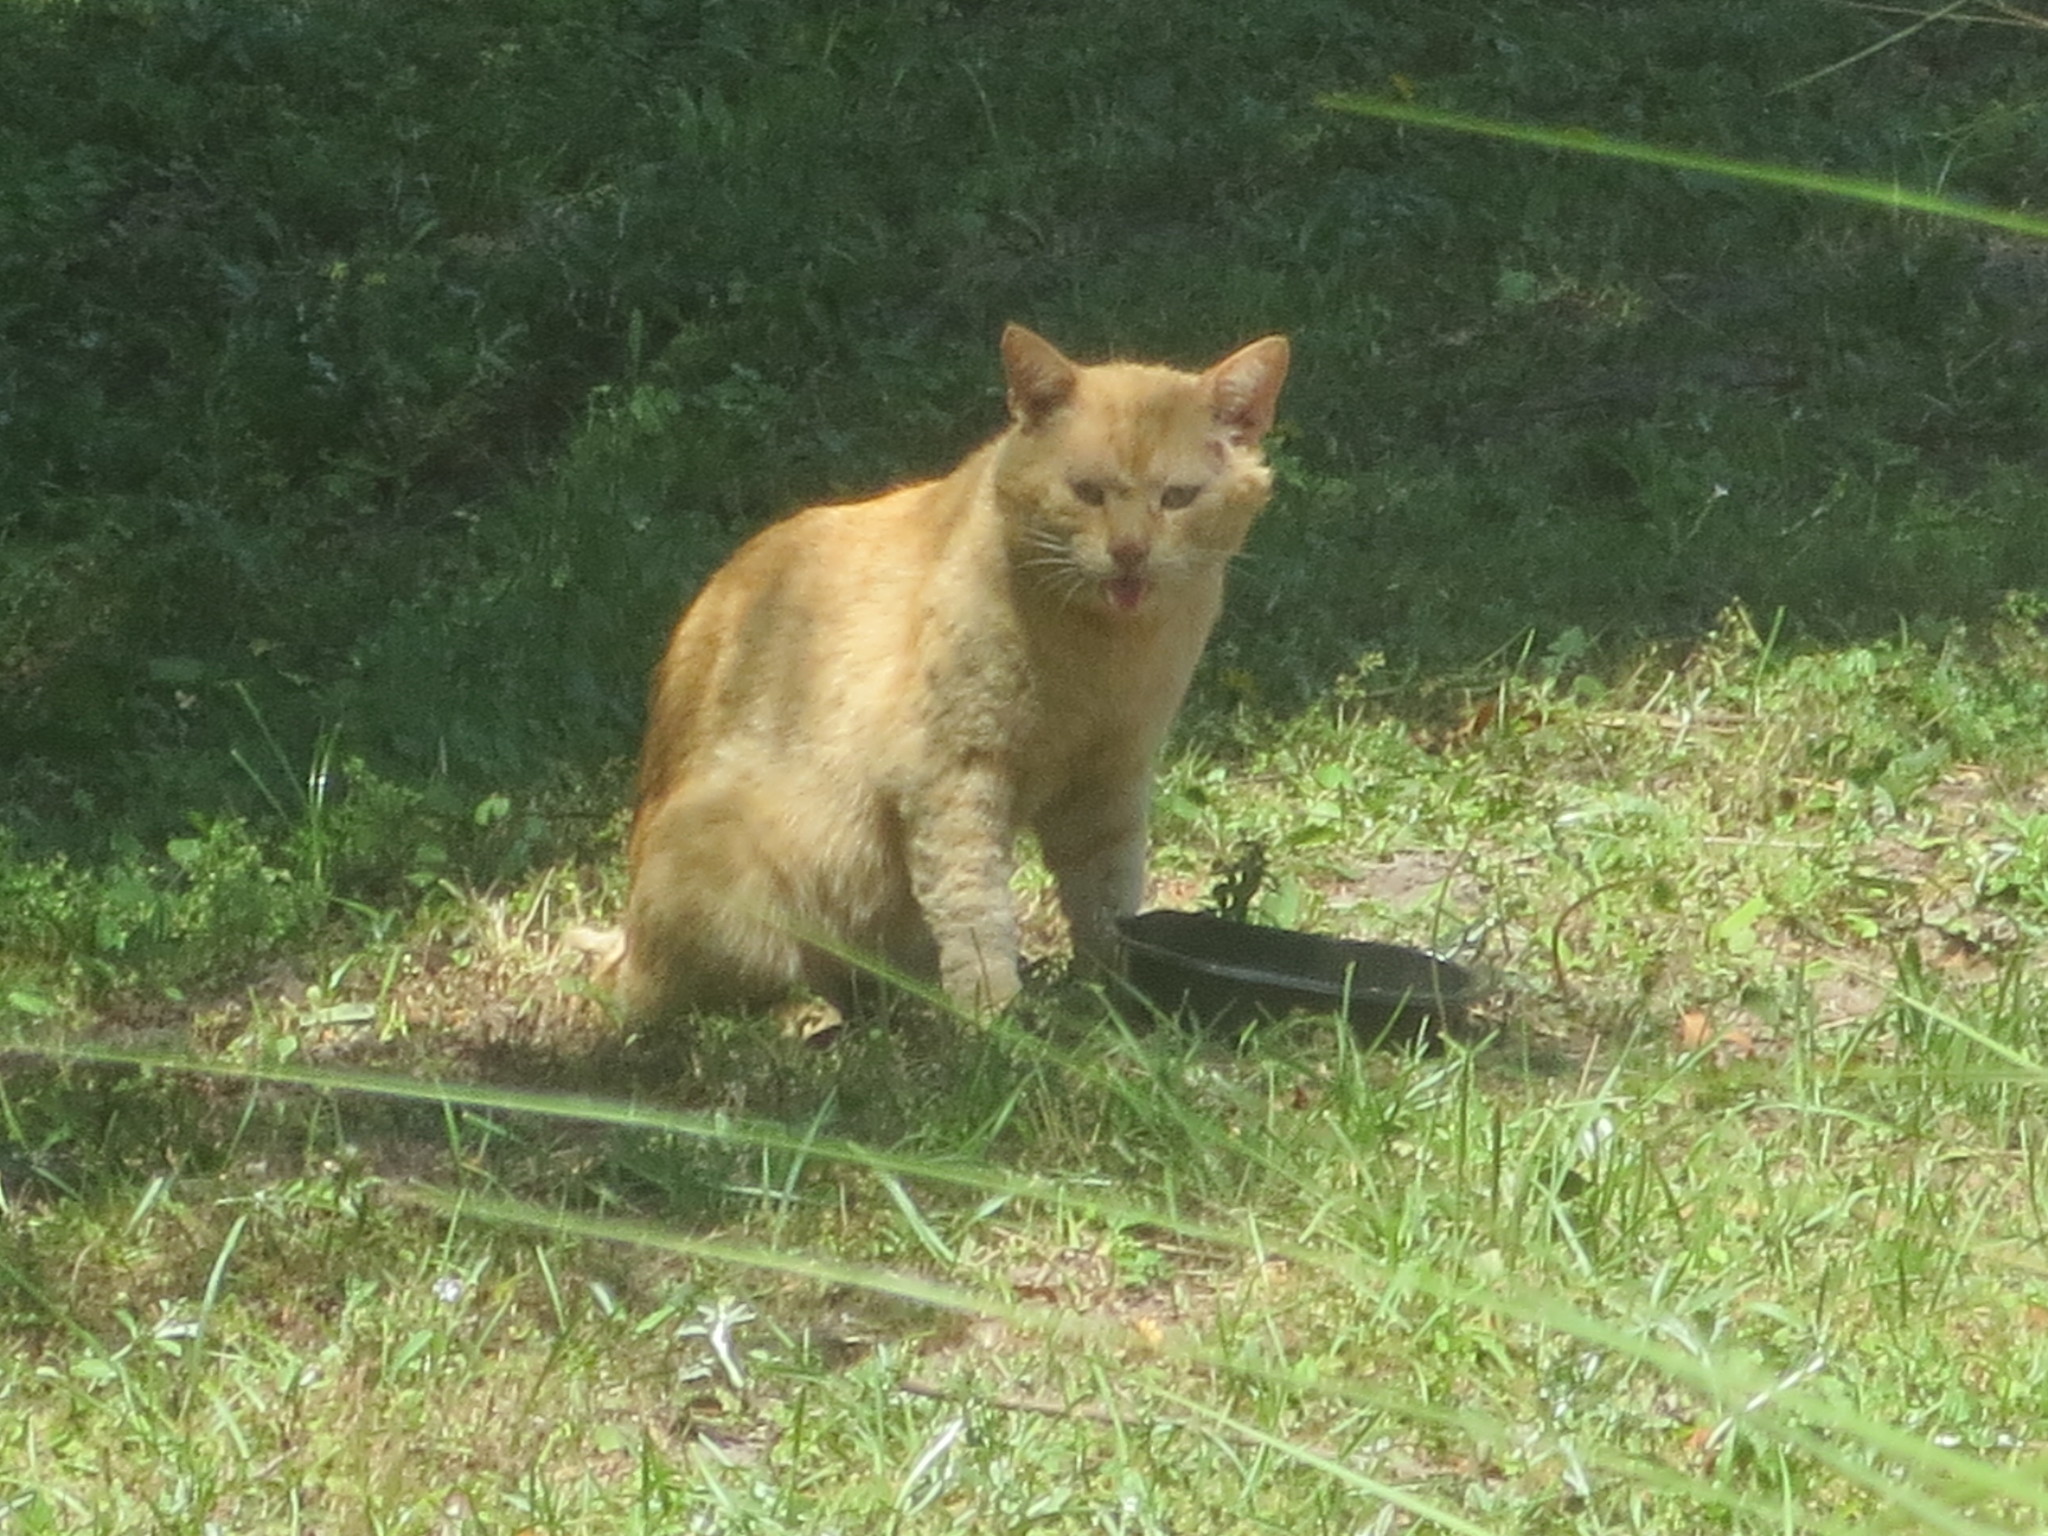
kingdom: Animalia
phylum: Chordata
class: Mammalia
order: Carnivora
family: Felidae
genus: Felis
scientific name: Felis catus
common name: Domestic cat
